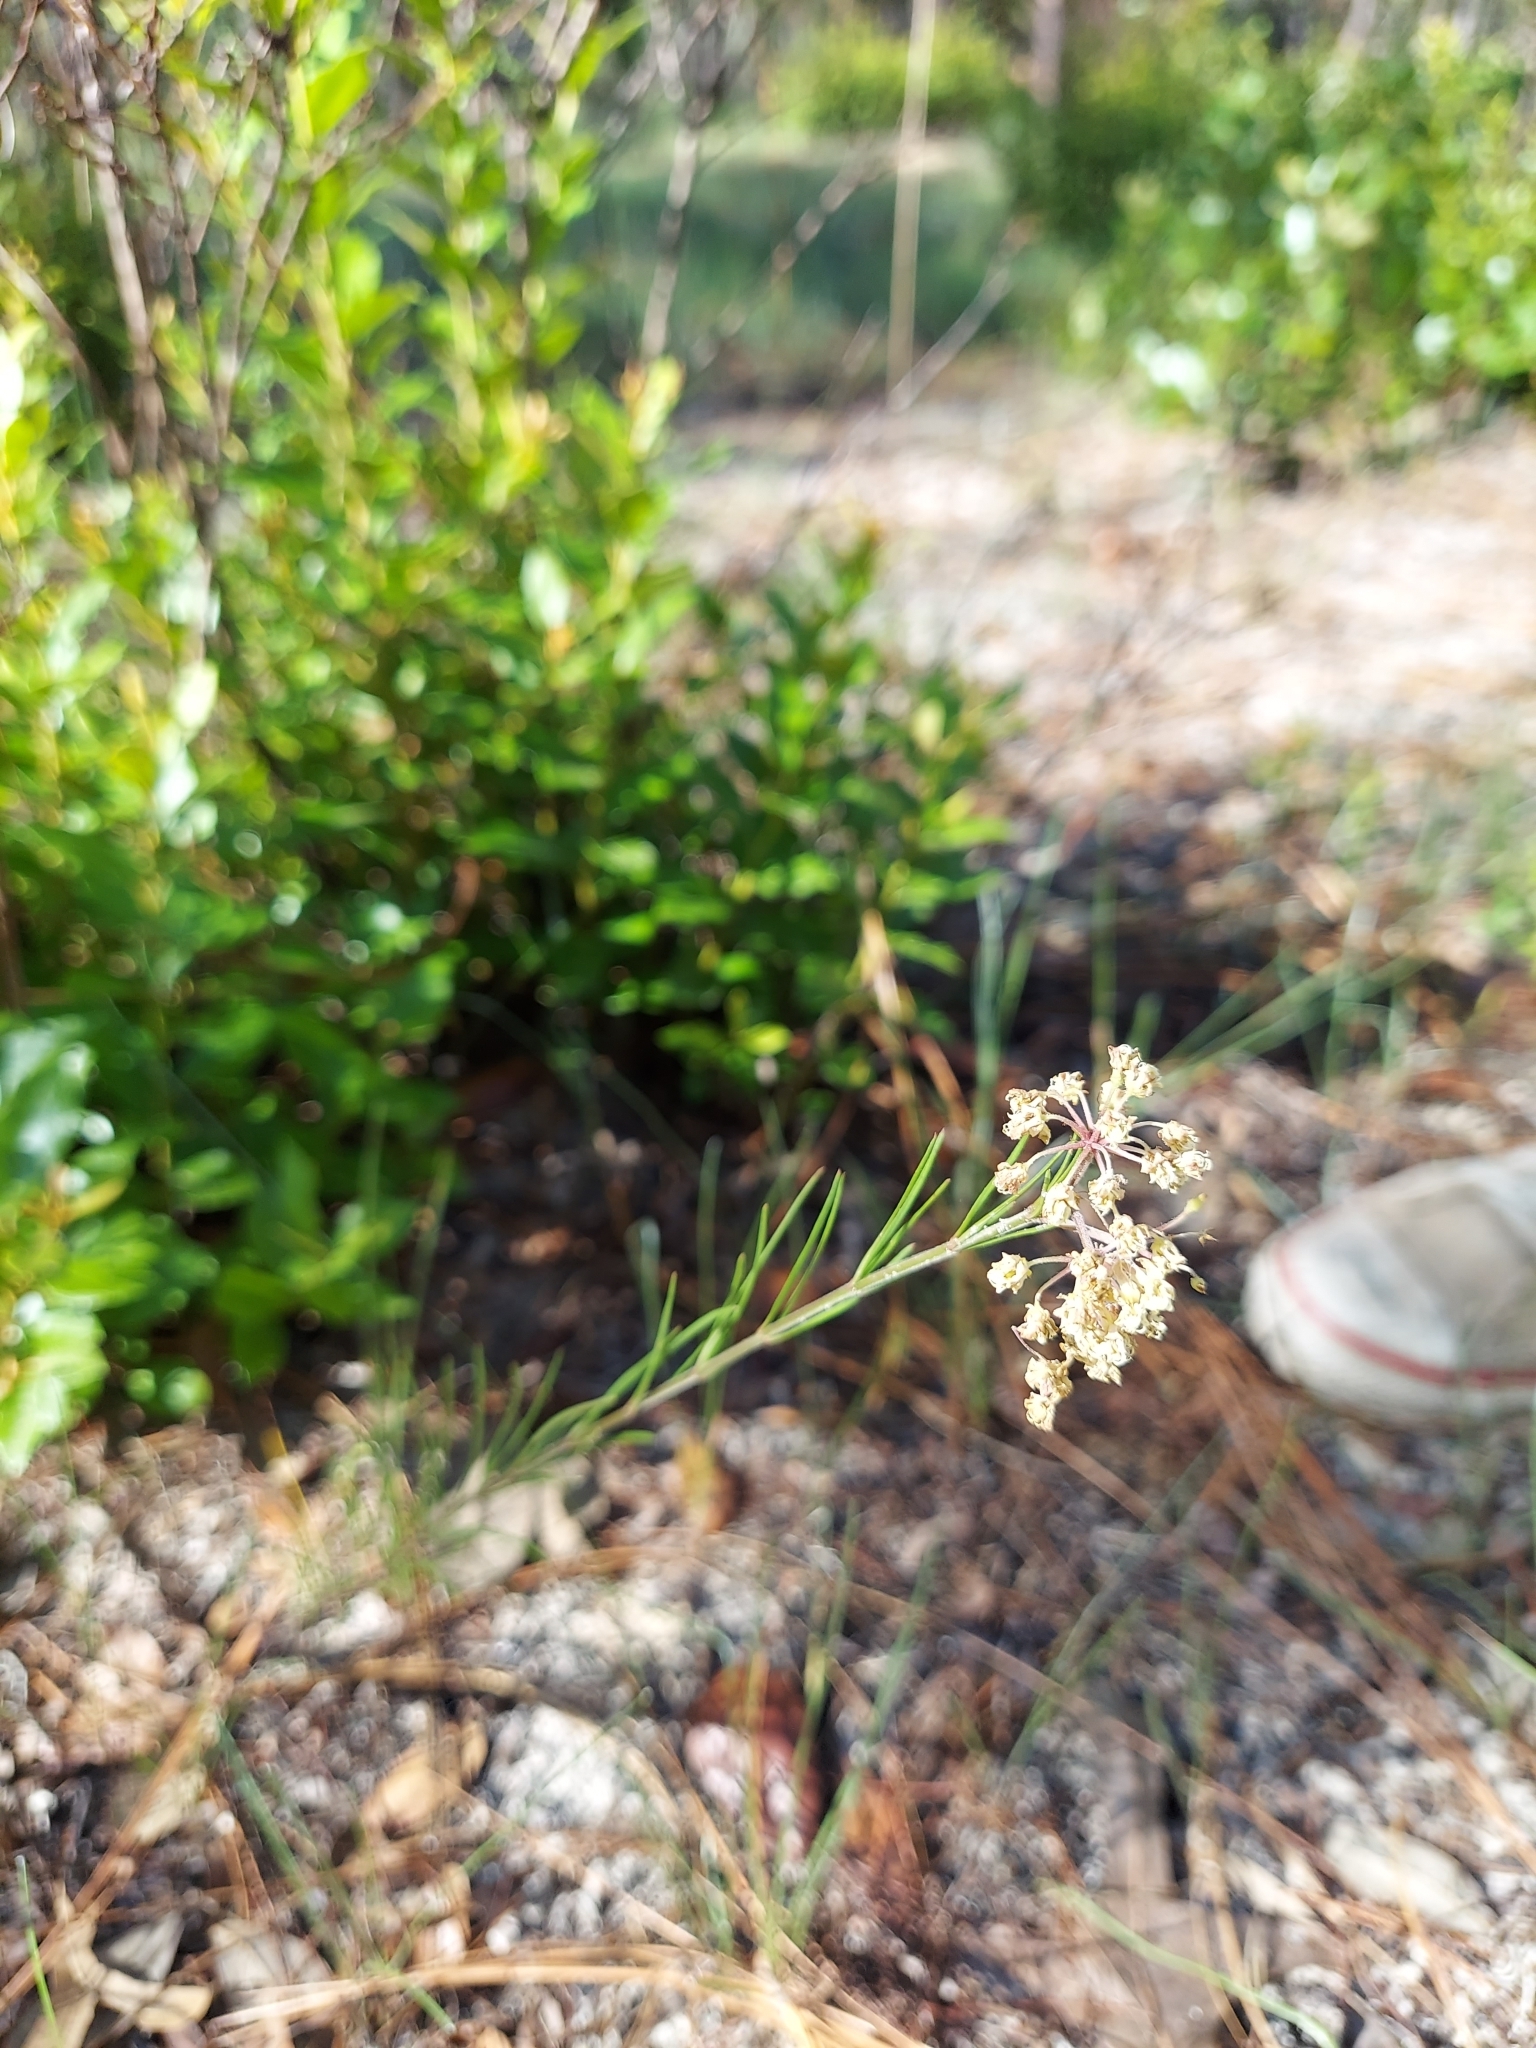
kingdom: Plantae
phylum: Tracheophyta
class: Magnoliopsida
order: Gentianales
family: Apocynaceae
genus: Asclepias
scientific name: Asclepias verticillata
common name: Eastern whorled milkweed
